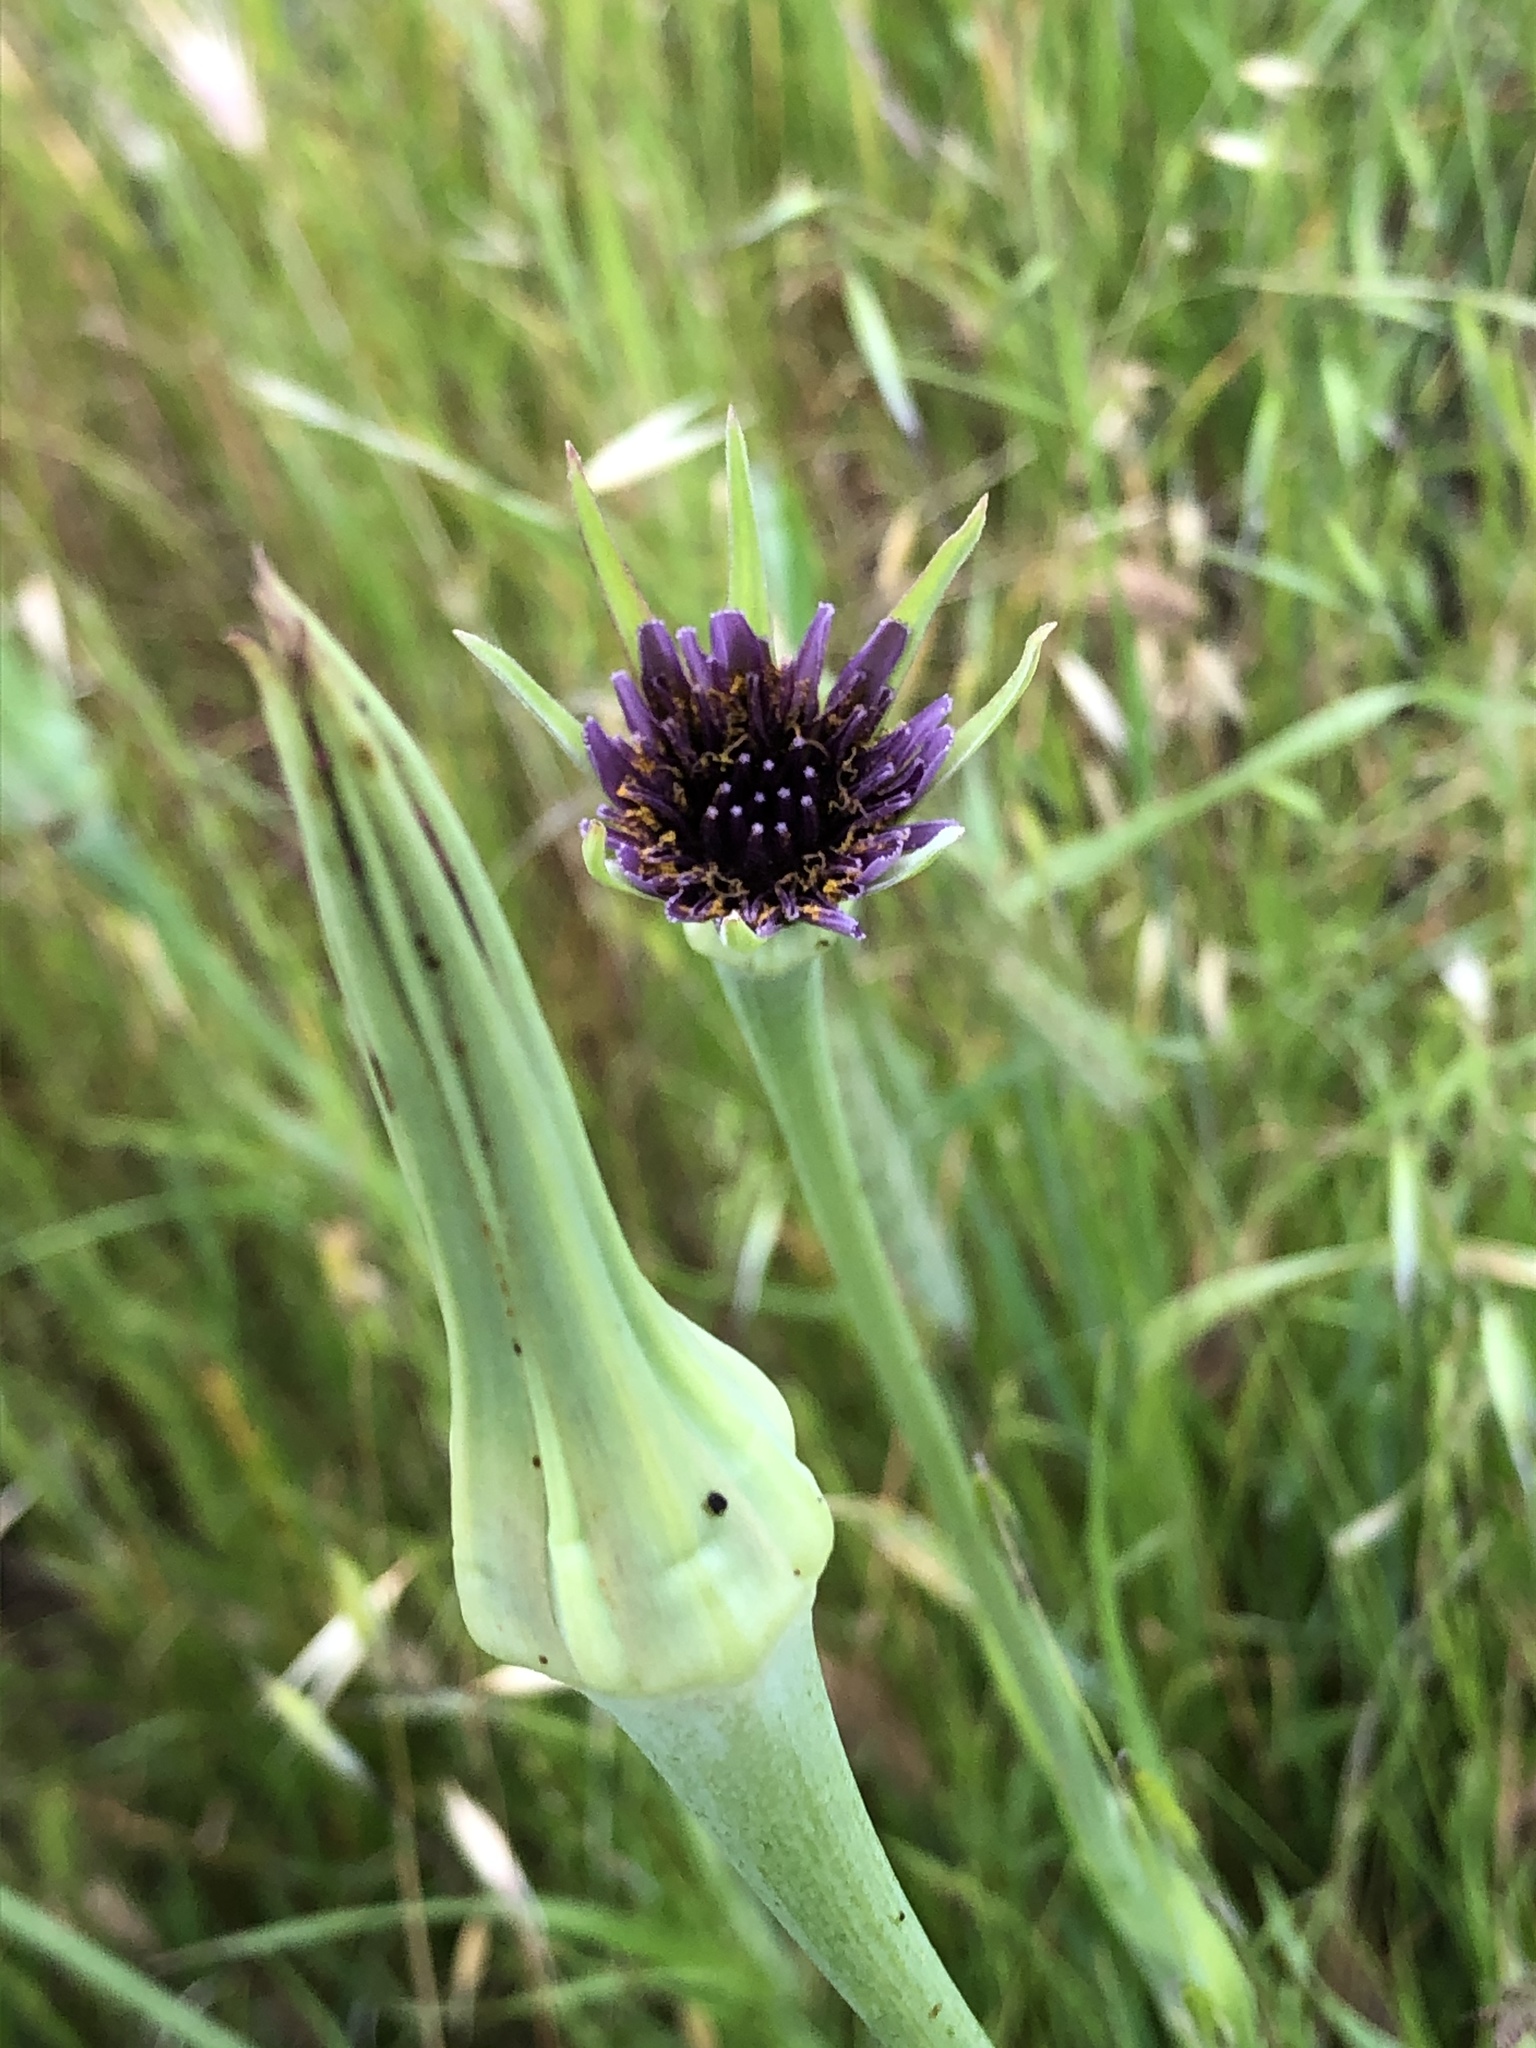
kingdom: Plantae
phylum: Tracheophyta
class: Magnoliopsida
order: Asterales
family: Asteraceae
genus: Tragopogon
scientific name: Tragopogon porrifolius
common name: Salsify
